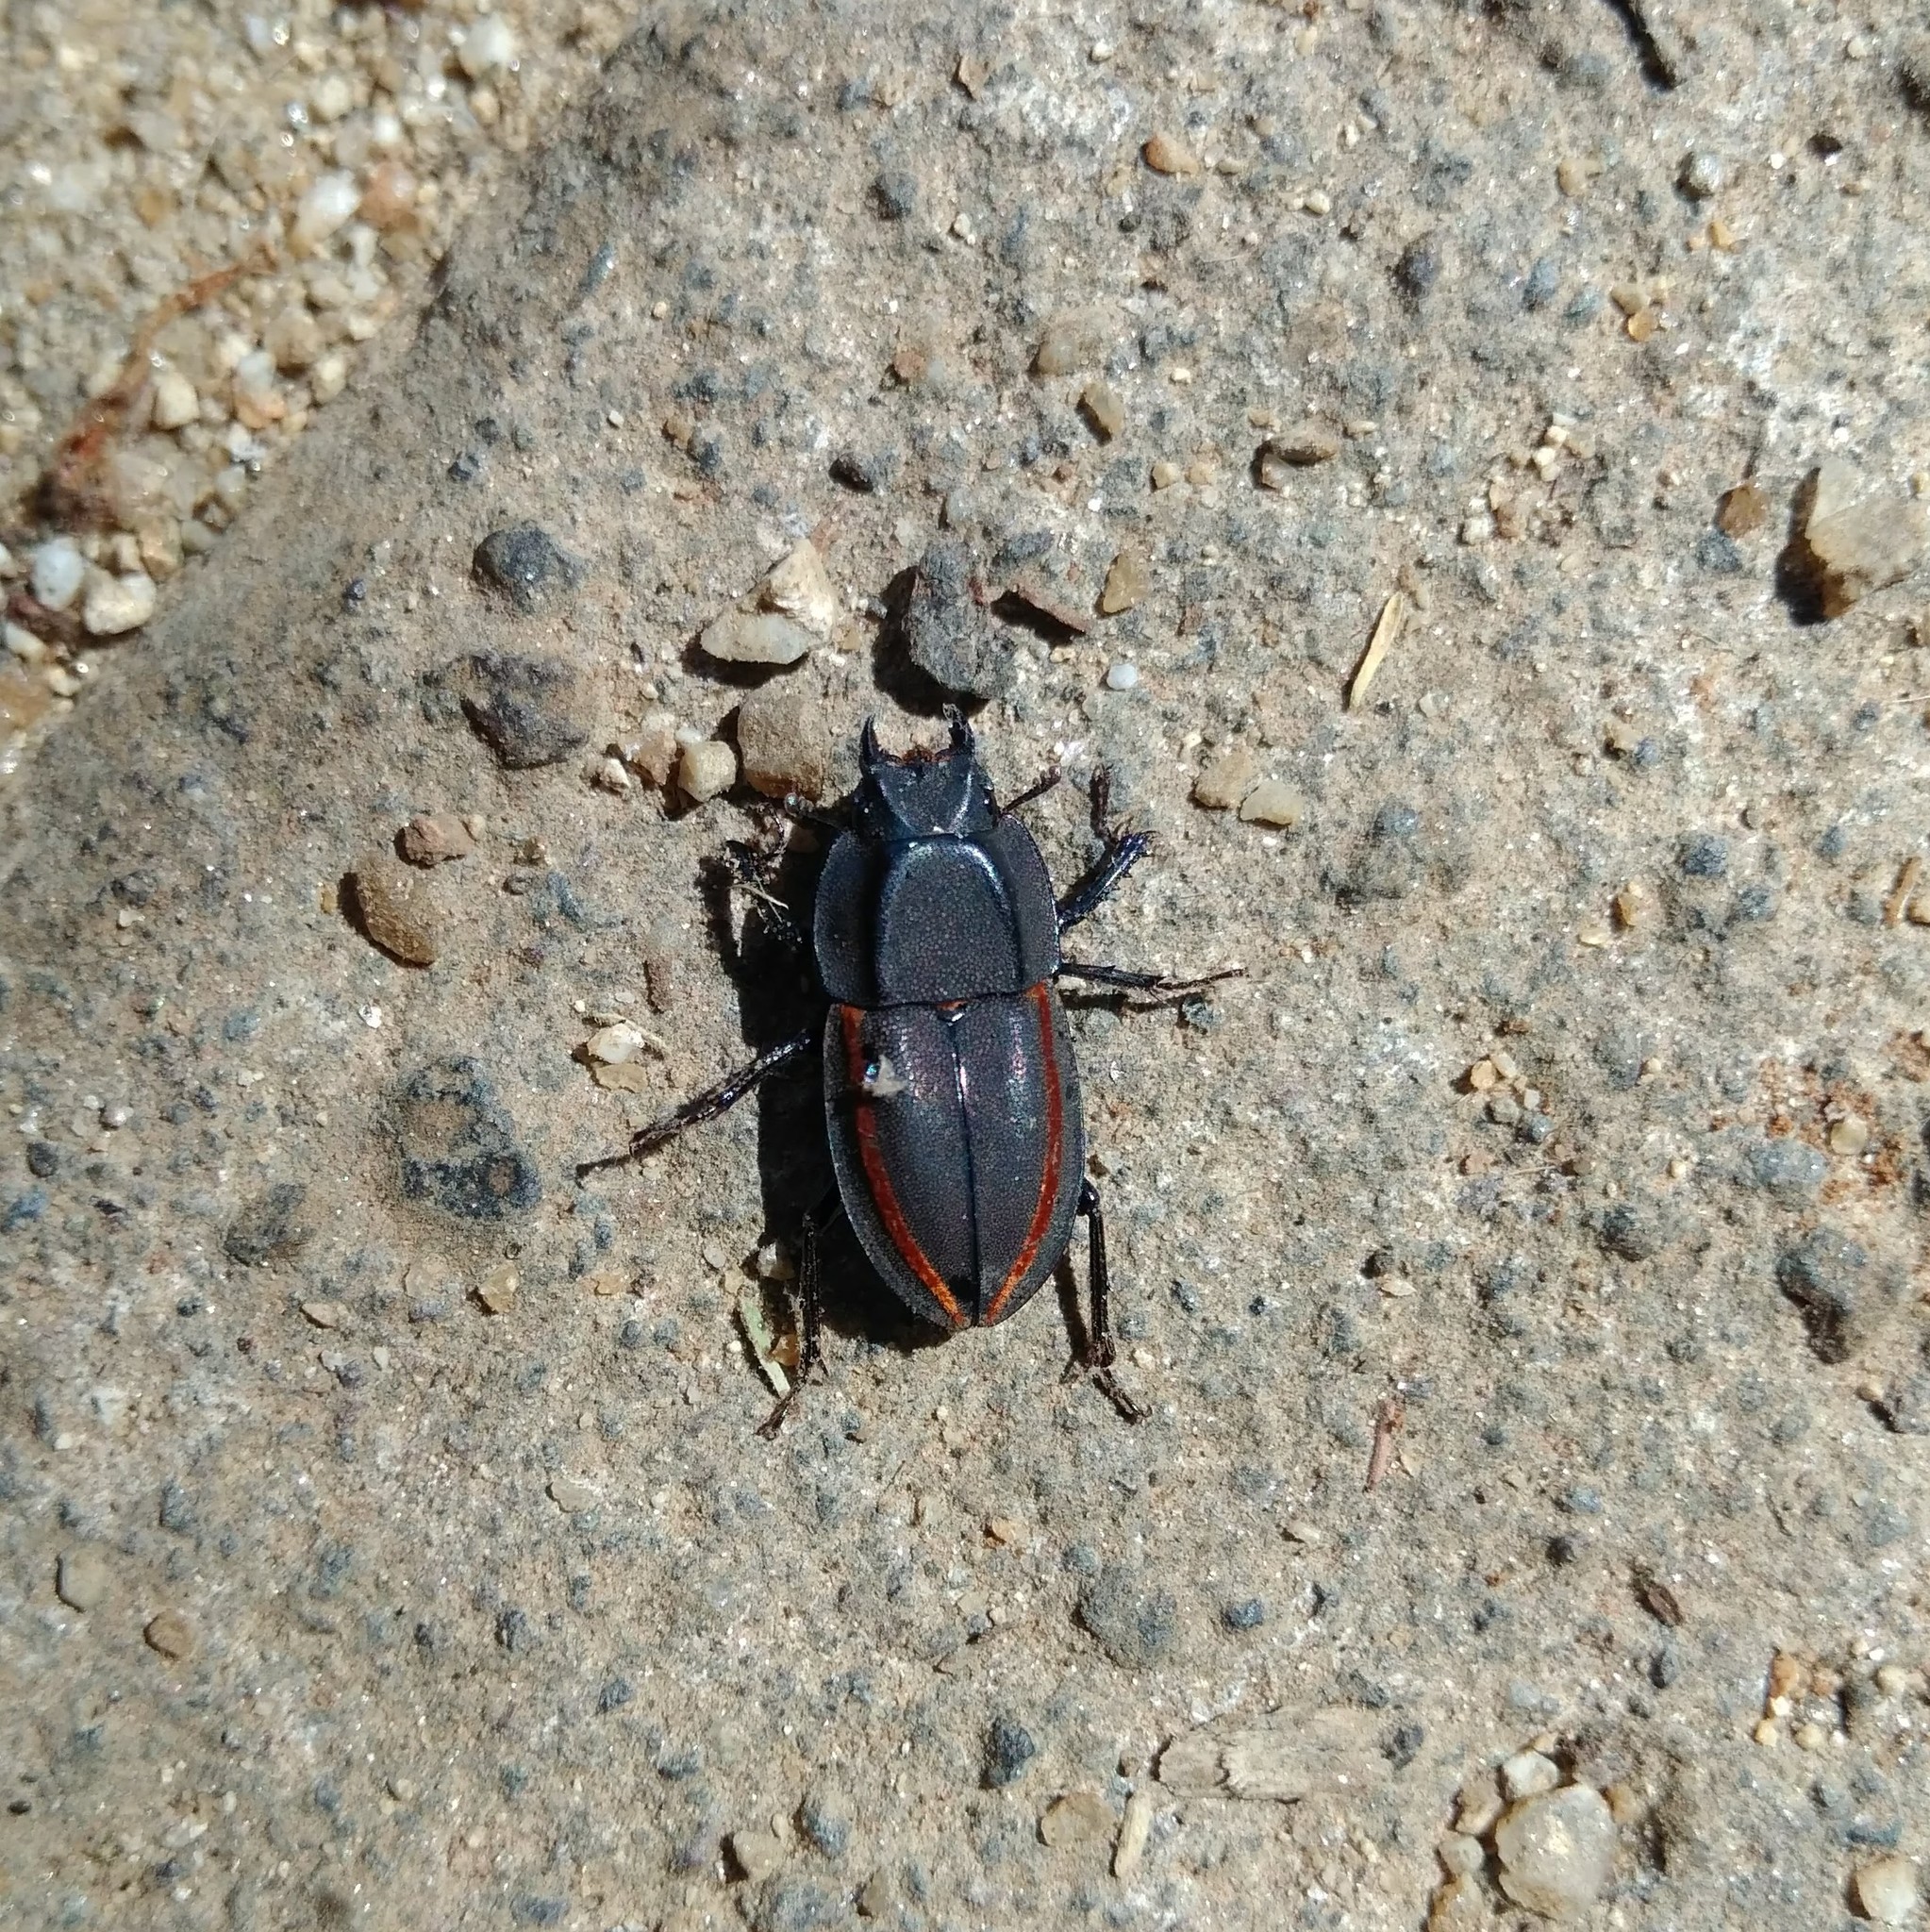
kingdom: Animalia
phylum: Arthropoda
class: Insecta
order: Coleoptera
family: Lucanidae
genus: Erichius
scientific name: Erichius vittatus
